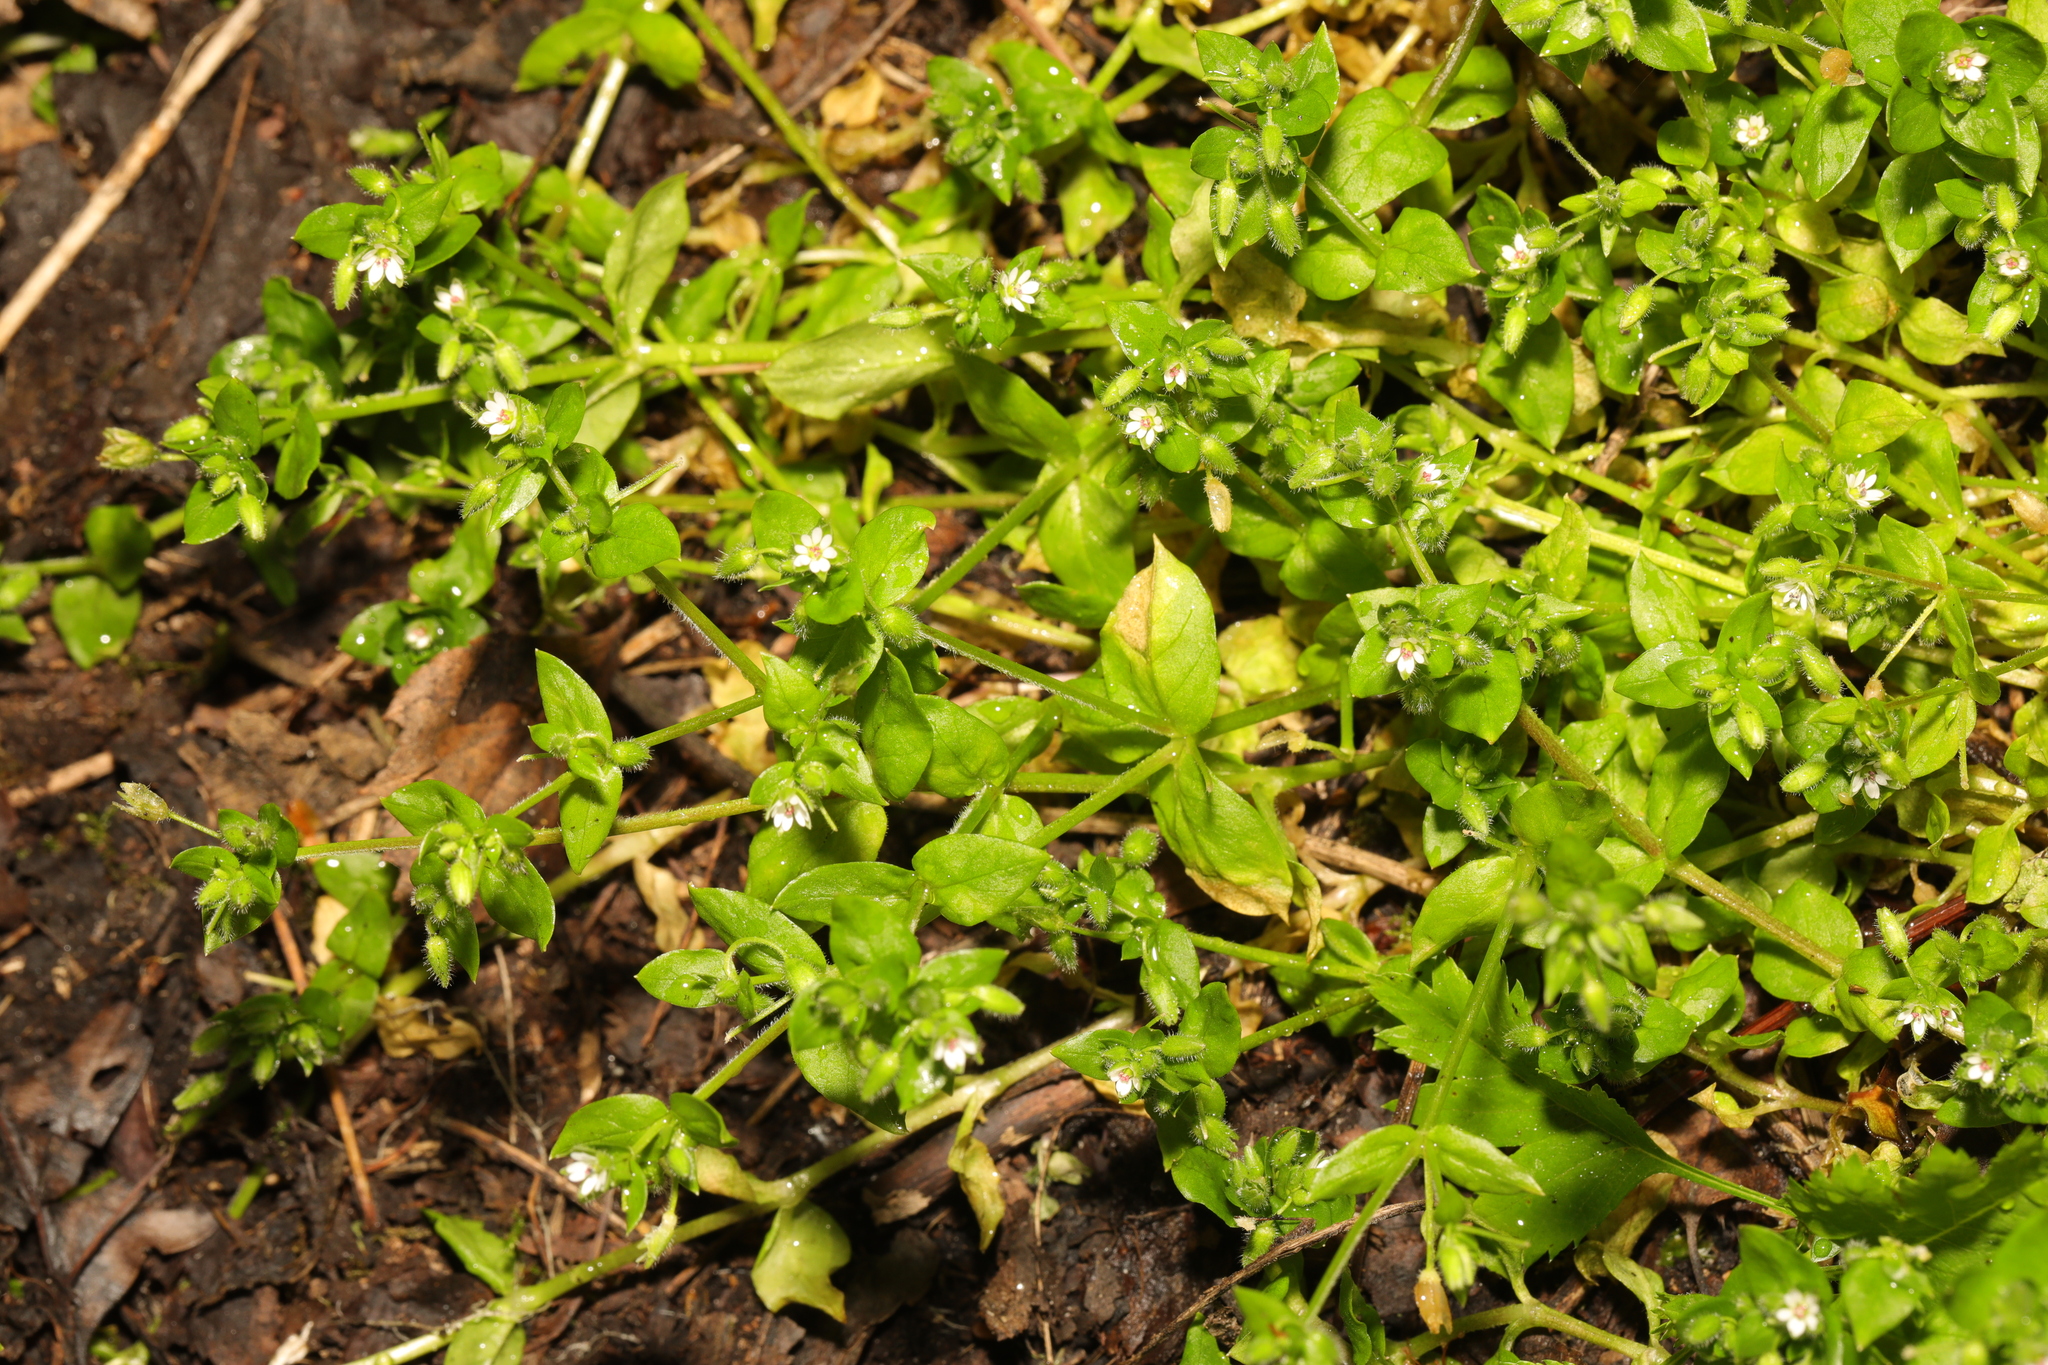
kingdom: Plantae
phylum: Tracheophyta
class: Magnoliopsida
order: Caryophyllales
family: Caryophyllaceae
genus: Stellaria
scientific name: Stellaria media
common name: Common chickweed
